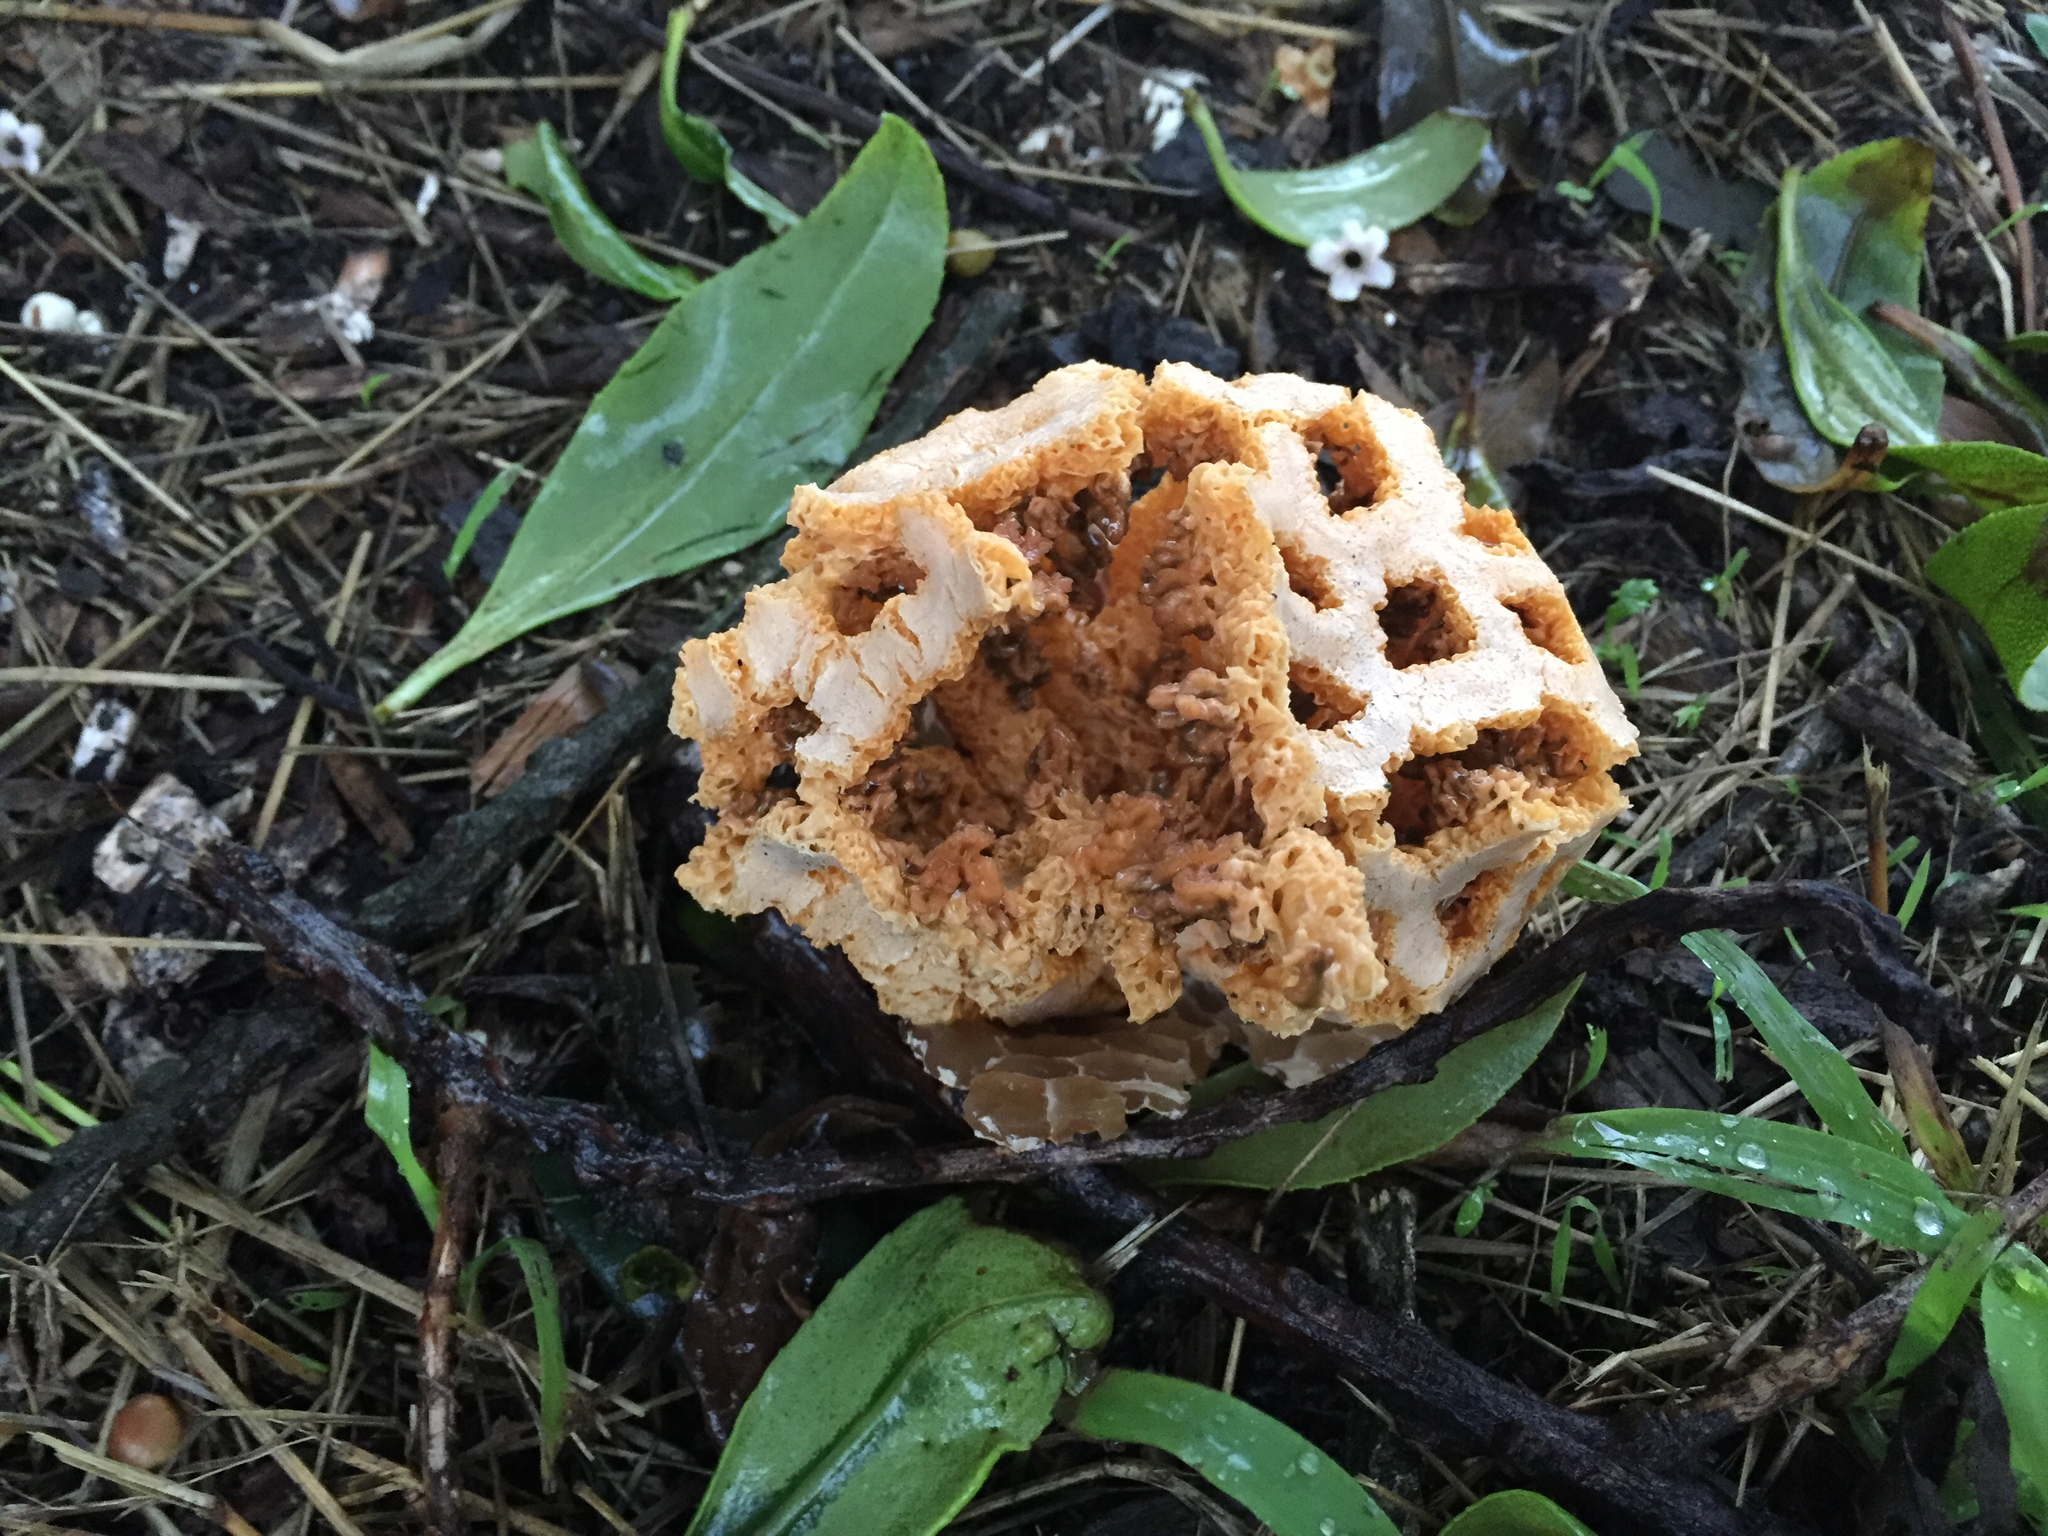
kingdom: Fungi
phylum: Basidiomycota
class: Agaricomycetes
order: Phallales
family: Phallaceae
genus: Clathrus
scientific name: Clathrus ruber
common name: Red cage
